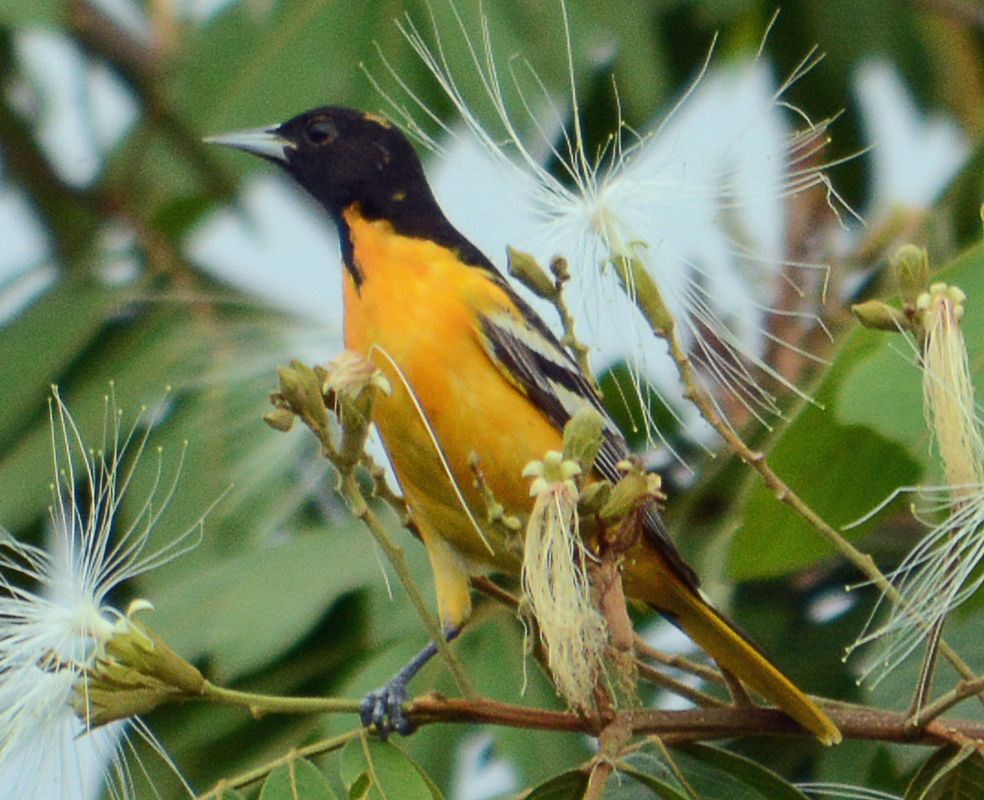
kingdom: Animalia
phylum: Chordata
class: Aves
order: Passeriformes
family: Icteridae
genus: Icterus
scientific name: Icterus galbula
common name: Baltimore oriole
